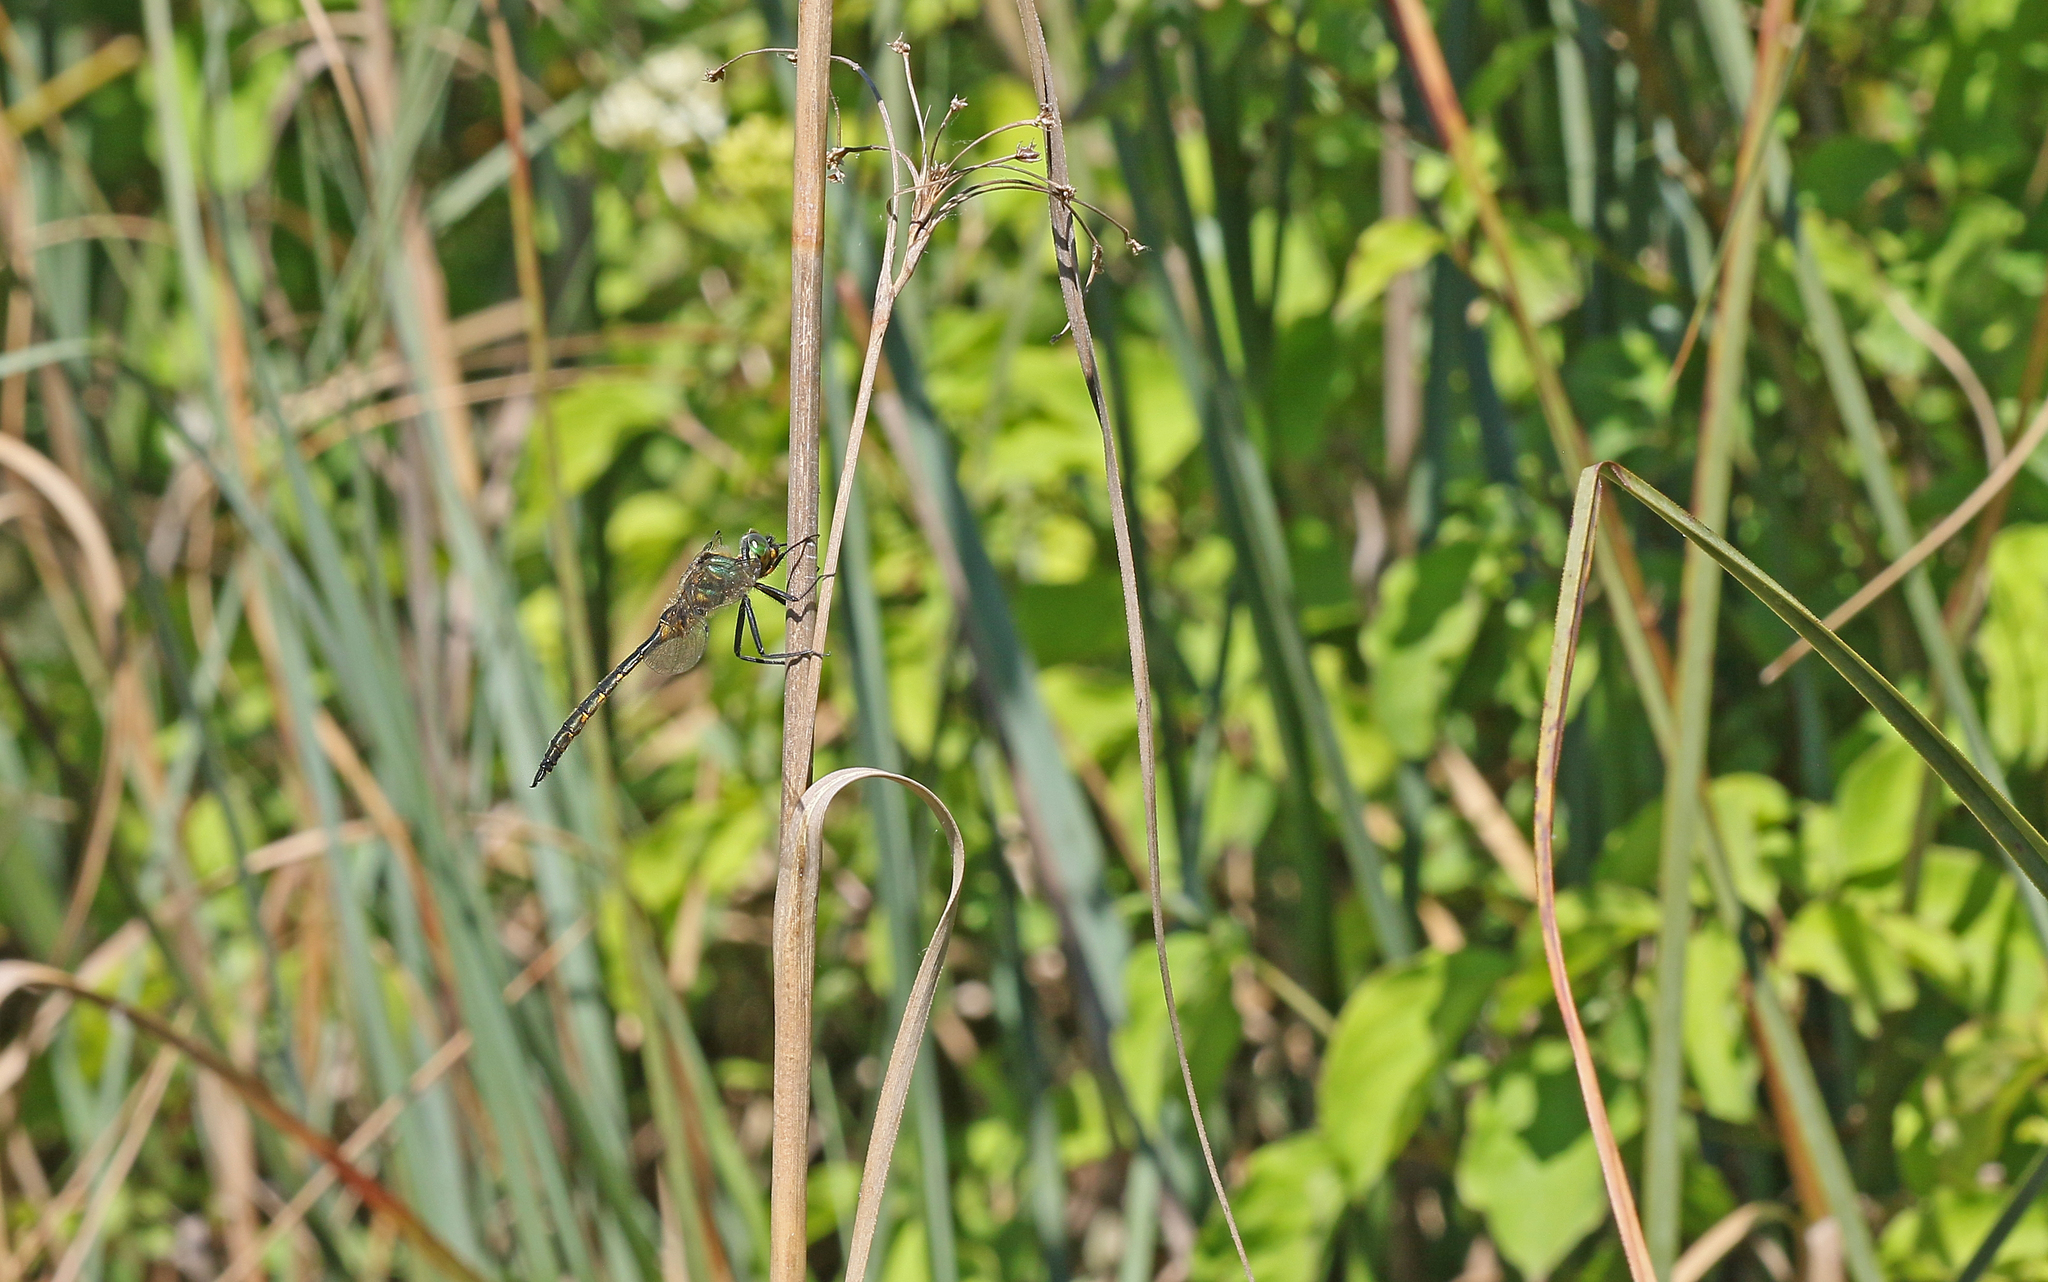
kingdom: Animalia
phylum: Arthropoda
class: Insecta
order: Odonata
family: Corduliidae
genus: Somatochlora
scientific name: Somatochlora flavomaculata
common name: Yellow-spotted emerald
